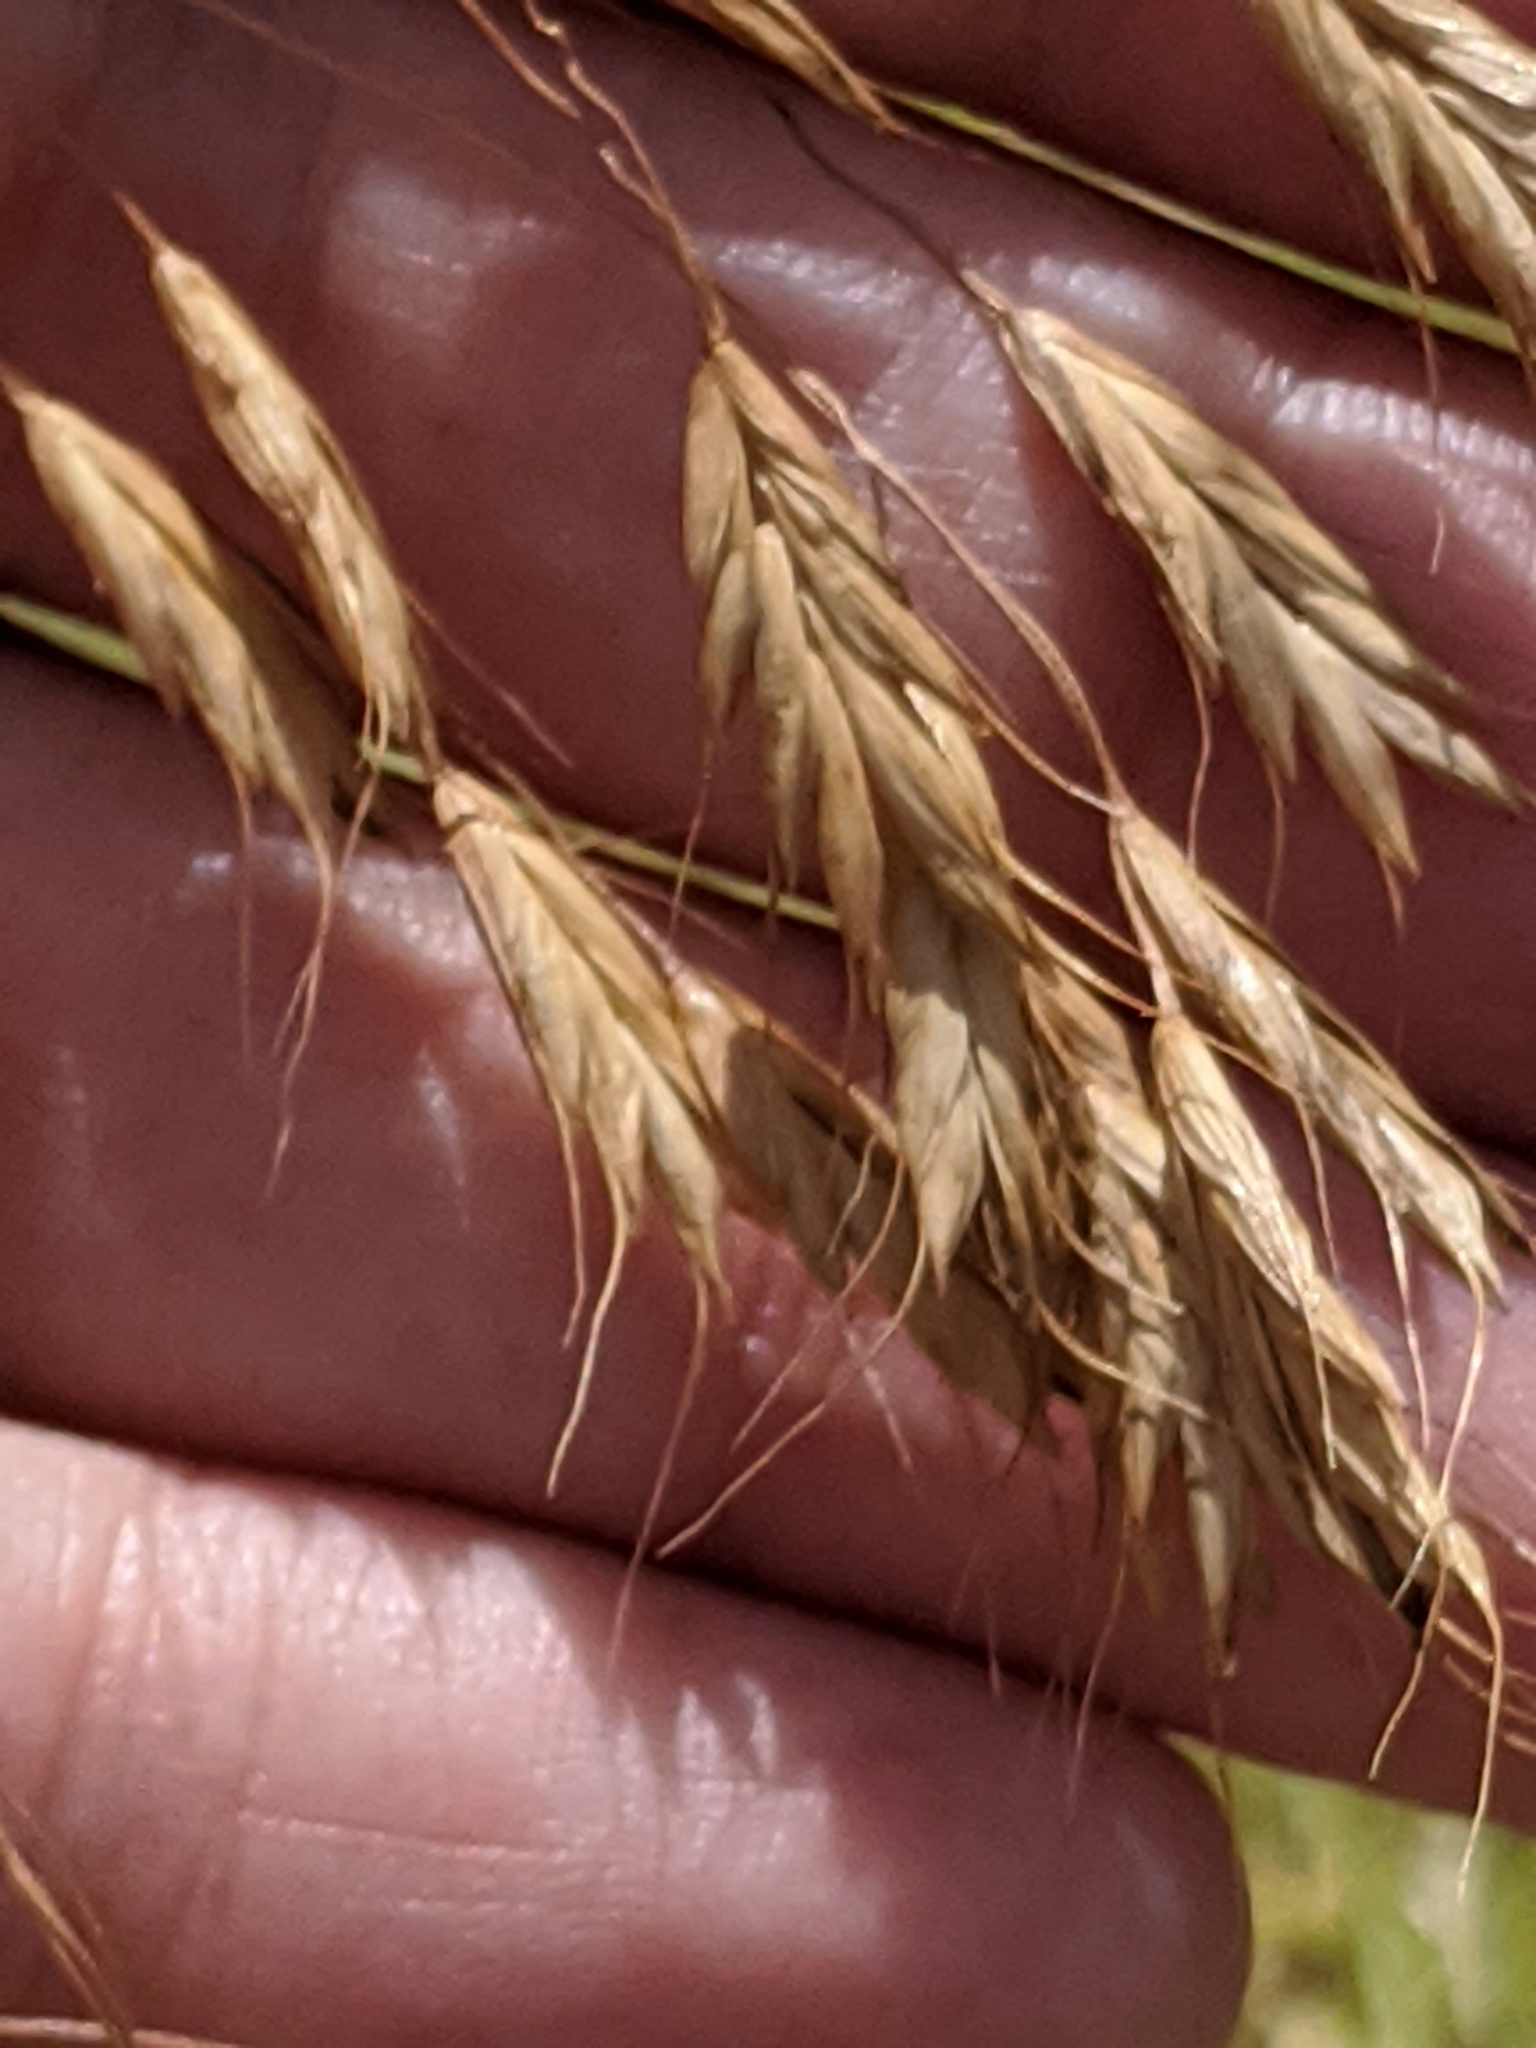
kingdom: Plantae
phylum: Tracheophyta
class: Liliopsida
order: Poales
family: Poaceae
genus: Bromus
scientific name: Bromus japonicus
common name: Japanese brome
